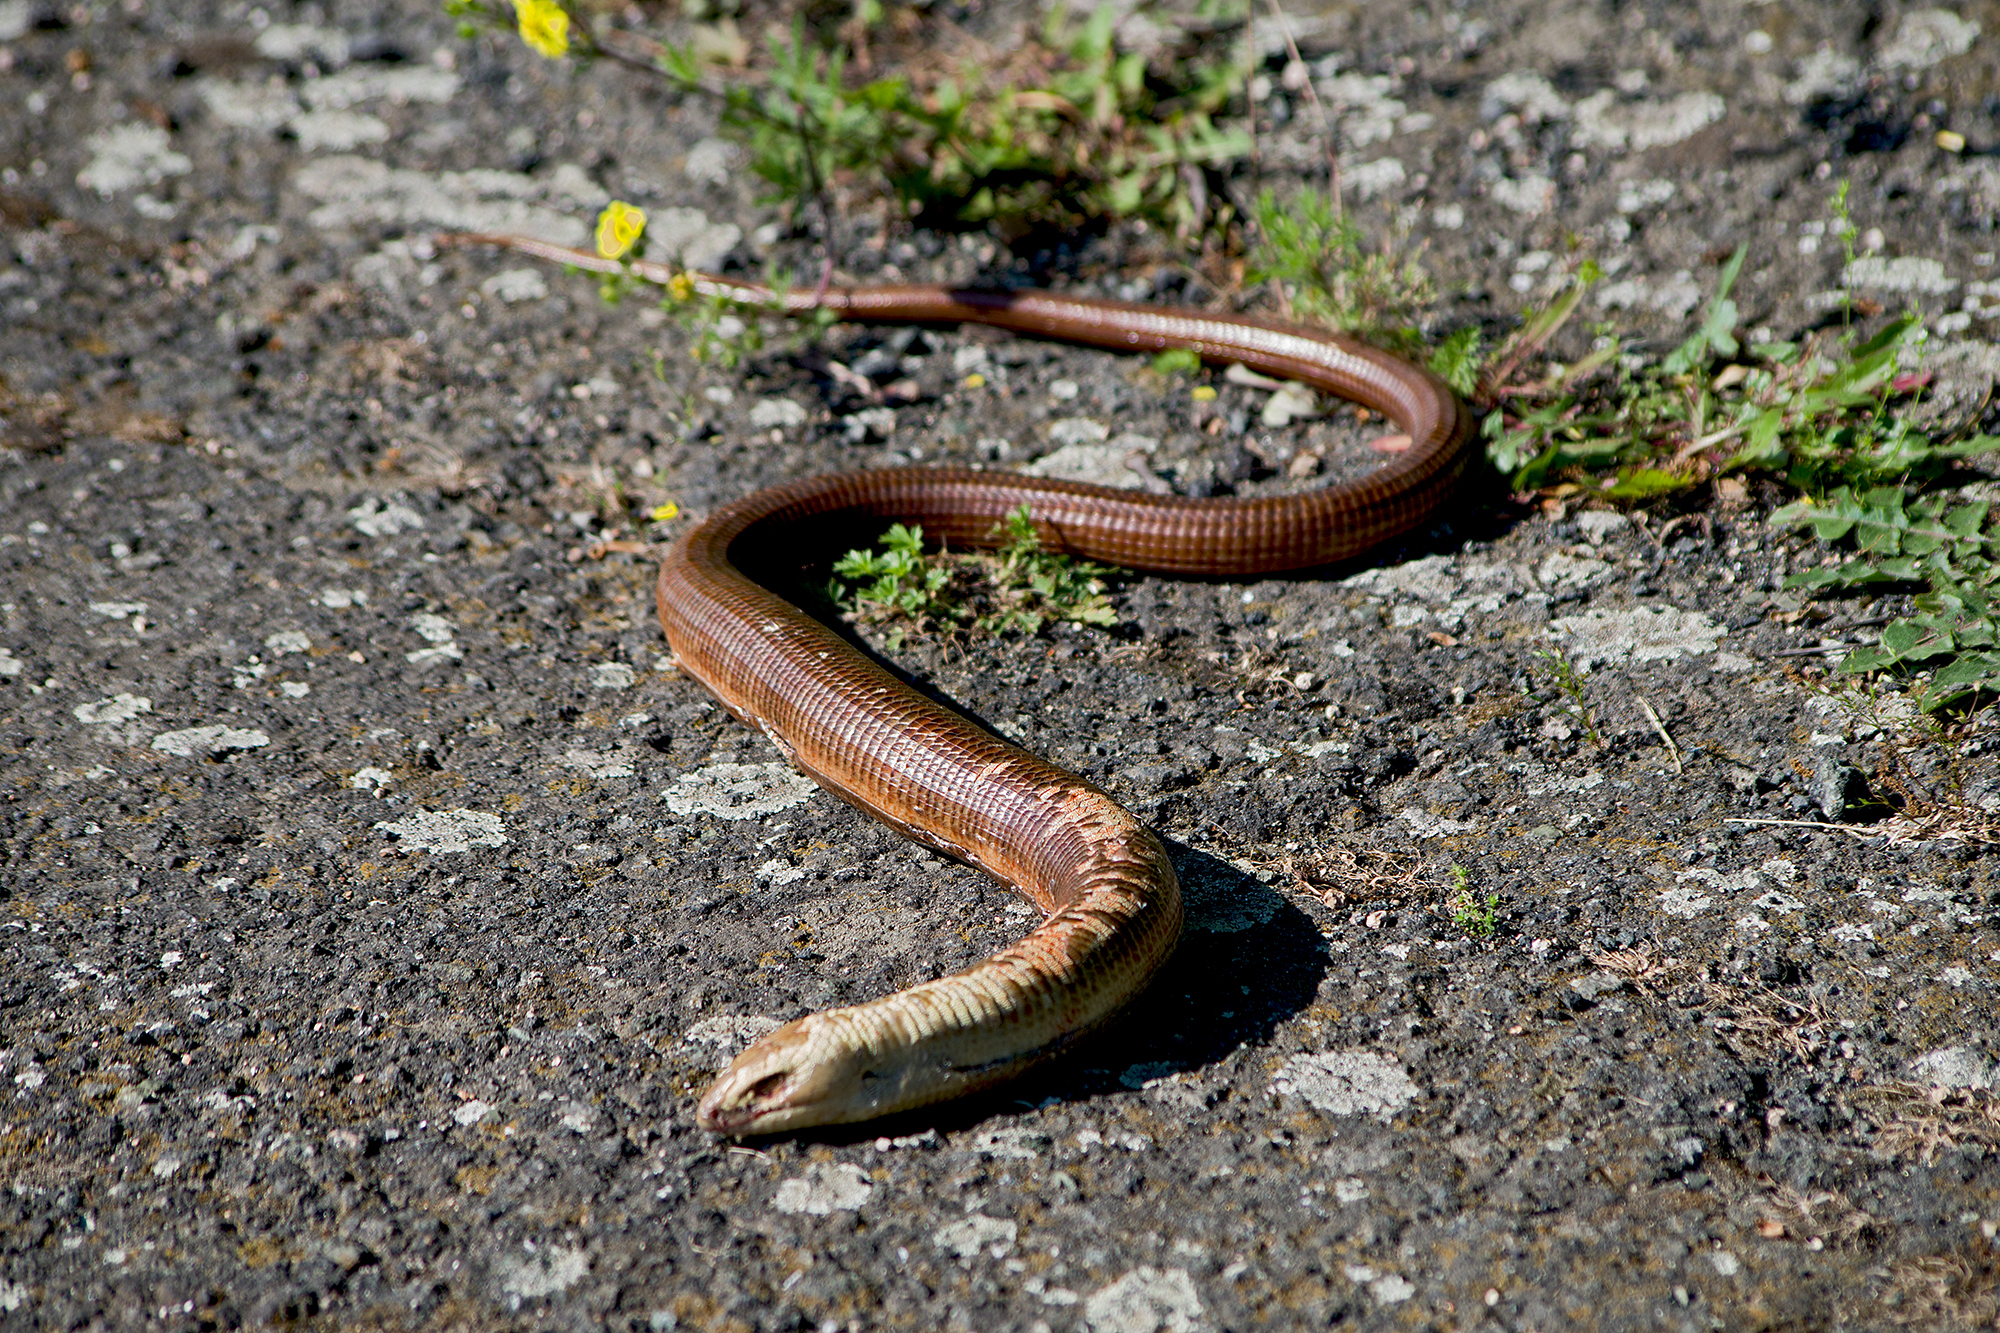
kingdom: Animalia
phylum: Chordata
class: Squamata
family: Anguidae
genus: Pseudopus
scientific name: Pseudopus apodus
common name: European glass lizard
